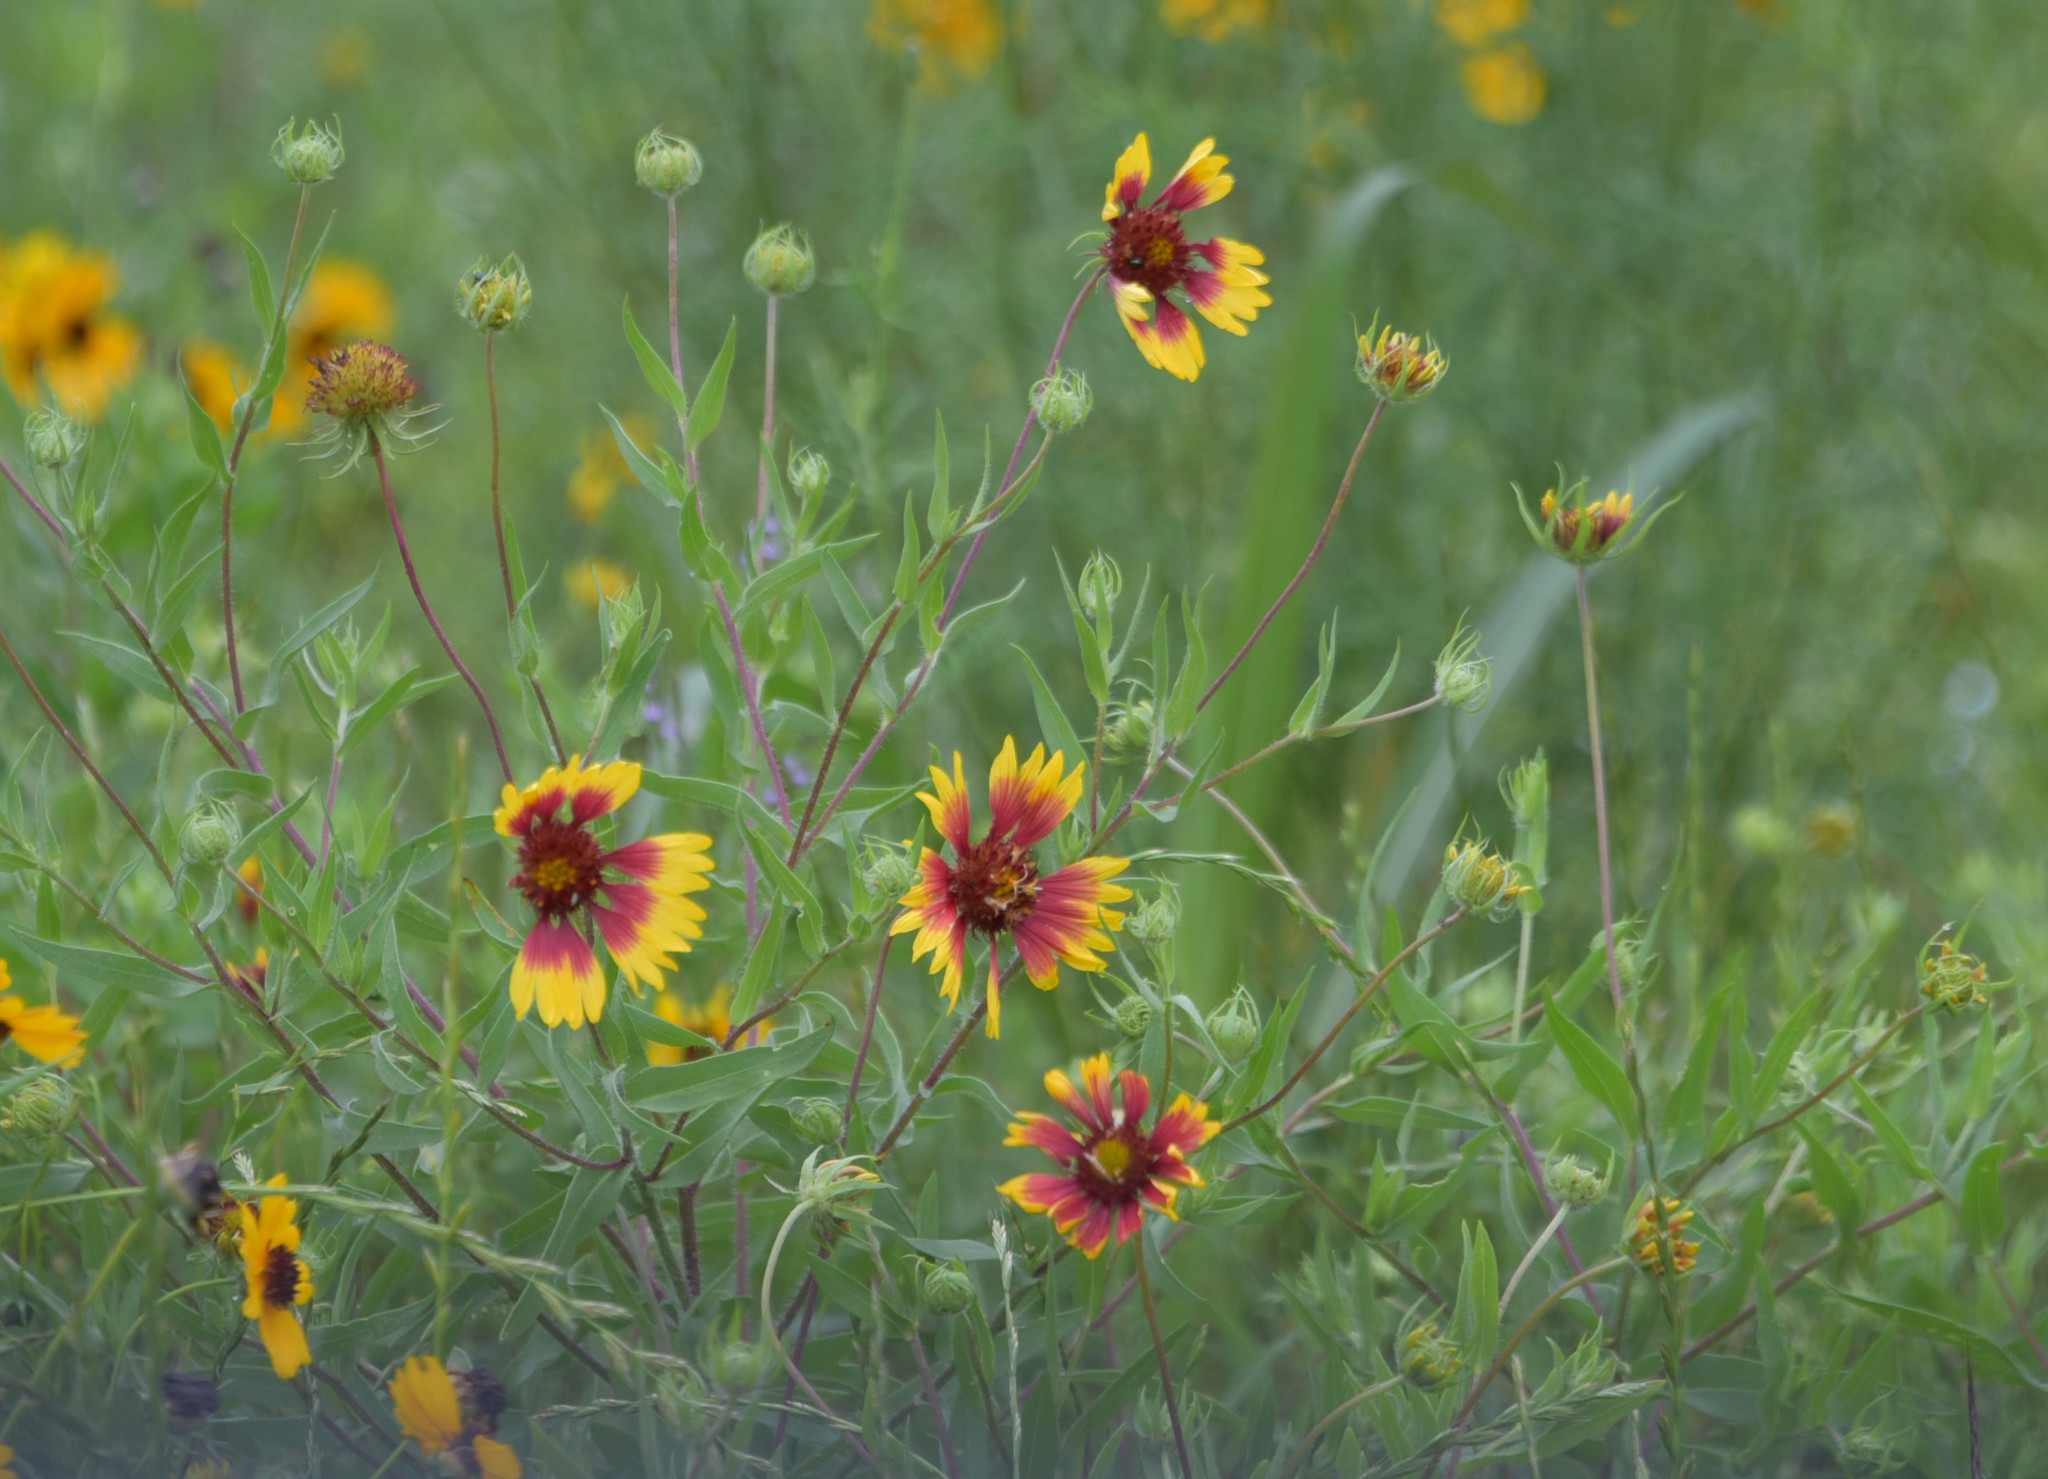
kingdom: Plantae
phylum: Tracheophyta
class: Magnoliopsida
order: Asterales
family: Asteraceae
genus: Gaillardia
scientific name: Gaillardia pulchella
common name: Firewheel
